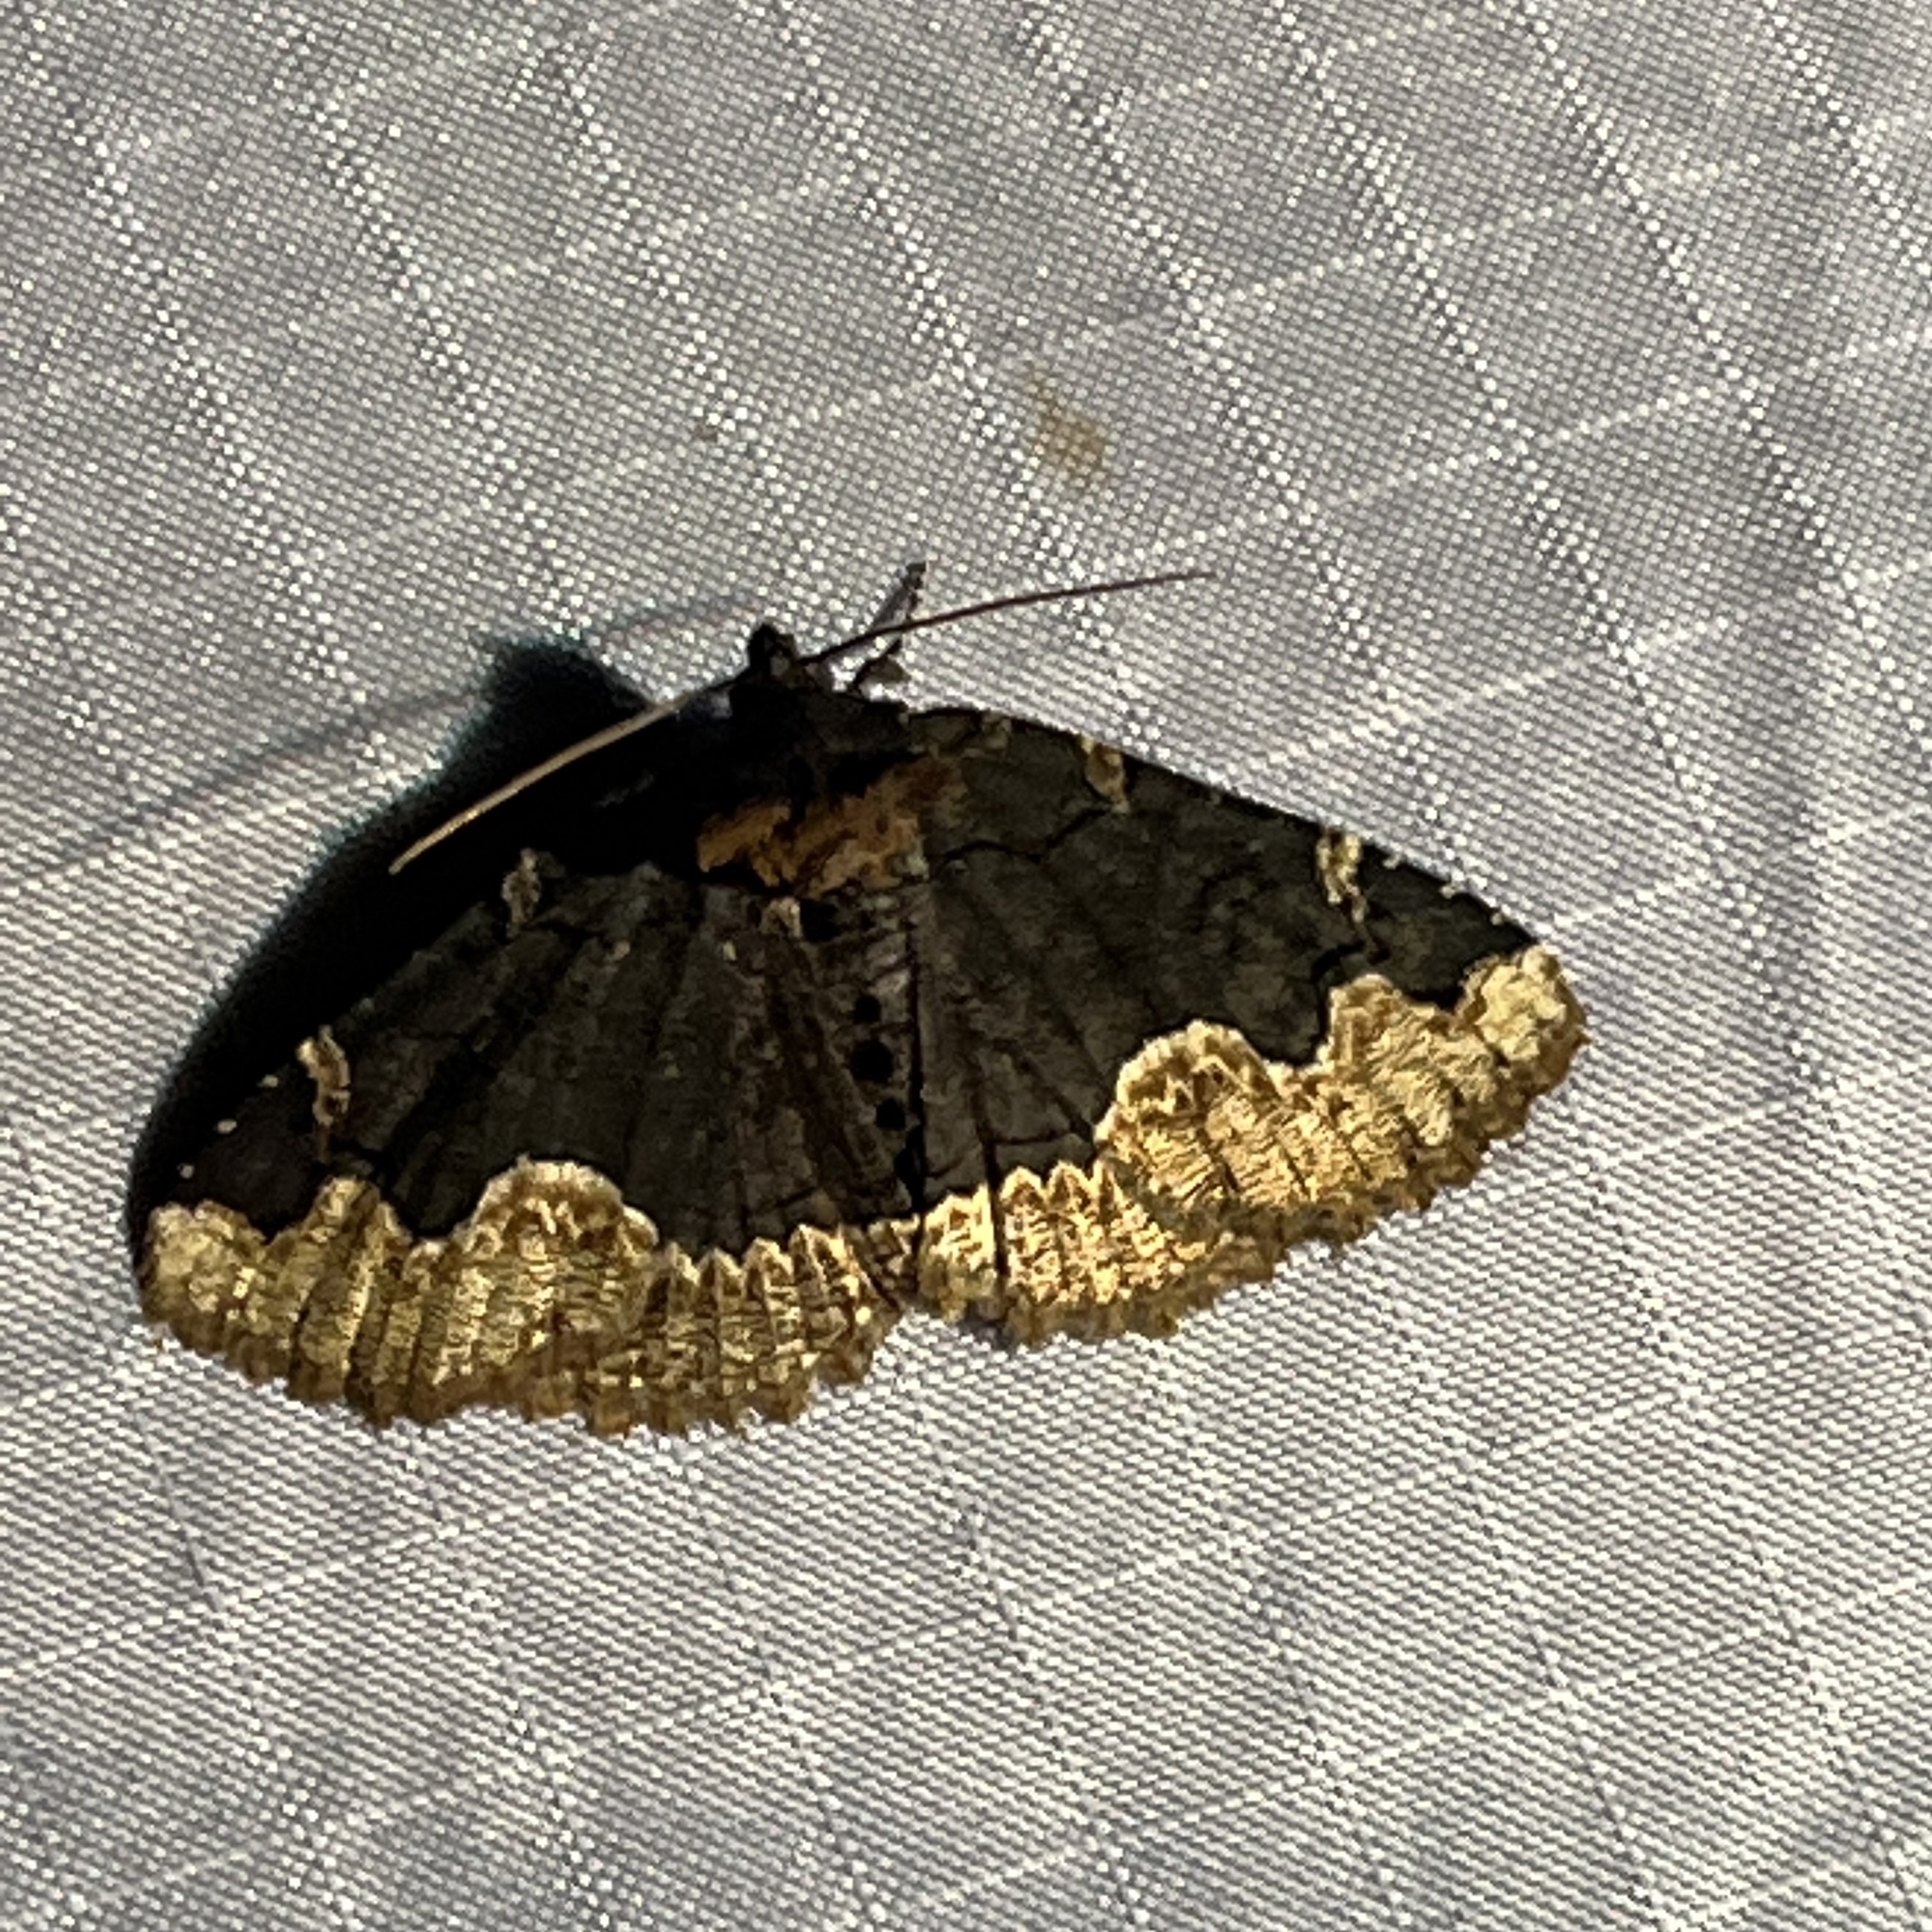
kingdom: Animalia
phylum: Arthropoda
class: Insecta
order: Lepidoptera
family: Erebidae
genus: Zale
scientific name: Zale horrida
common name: Horrid zale moth
